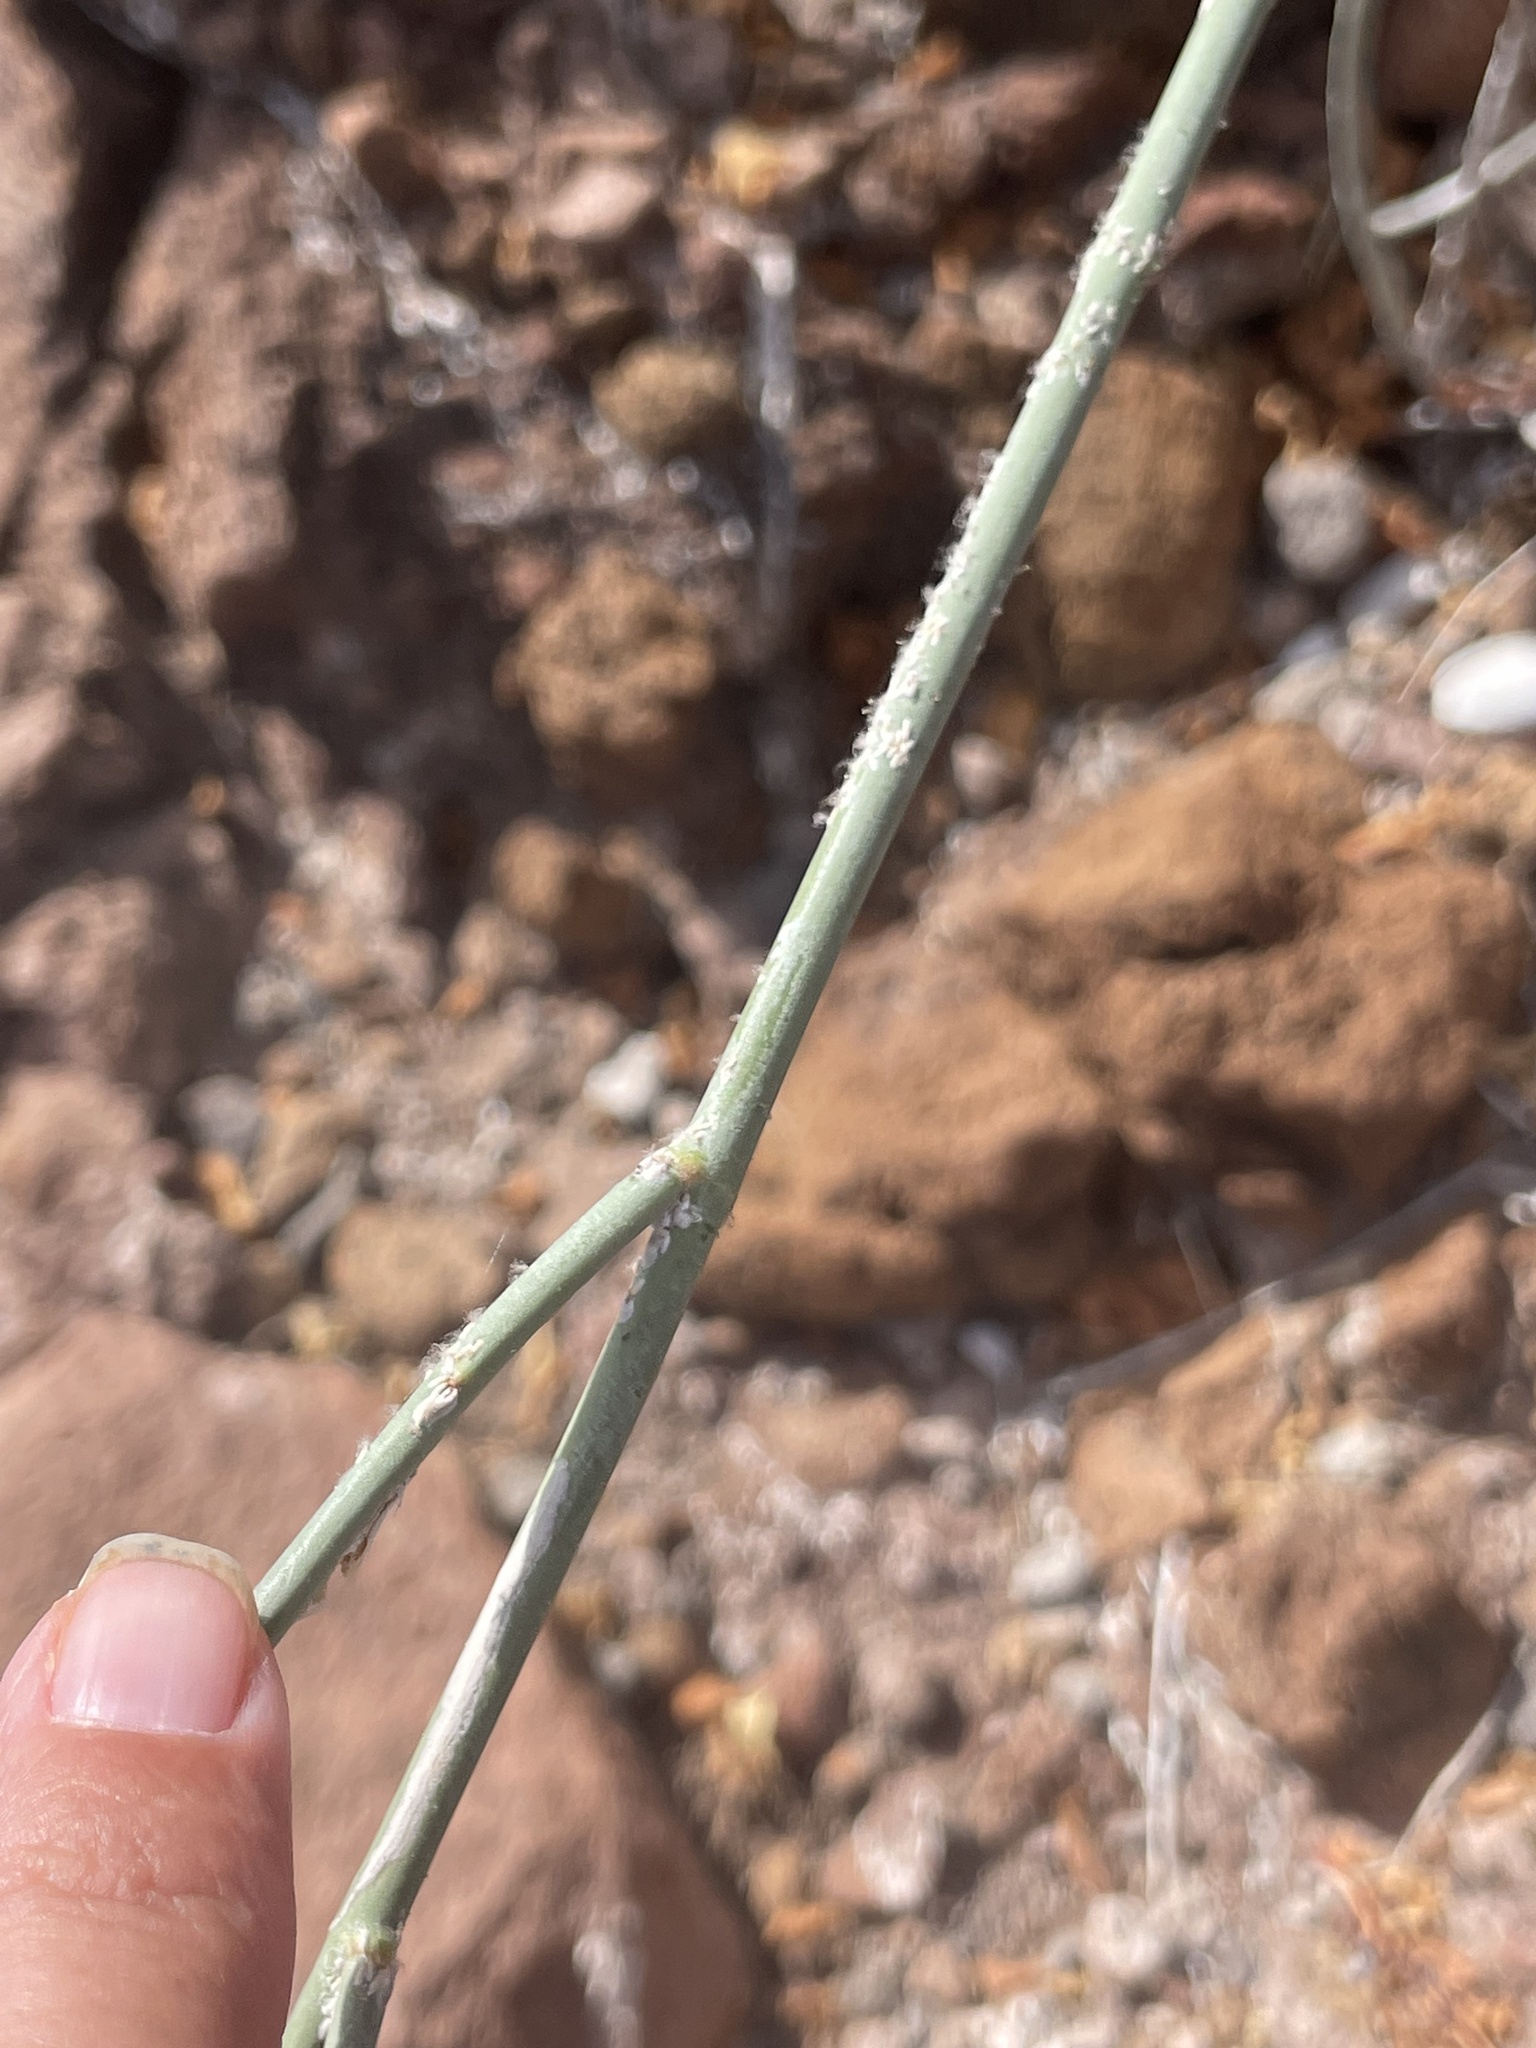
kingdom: Plantae
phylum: Tracheophyta
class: Magnoliopsida
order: Gentianales
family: Apocynaceae
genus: Asclepias
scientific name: Asclepias subulata
